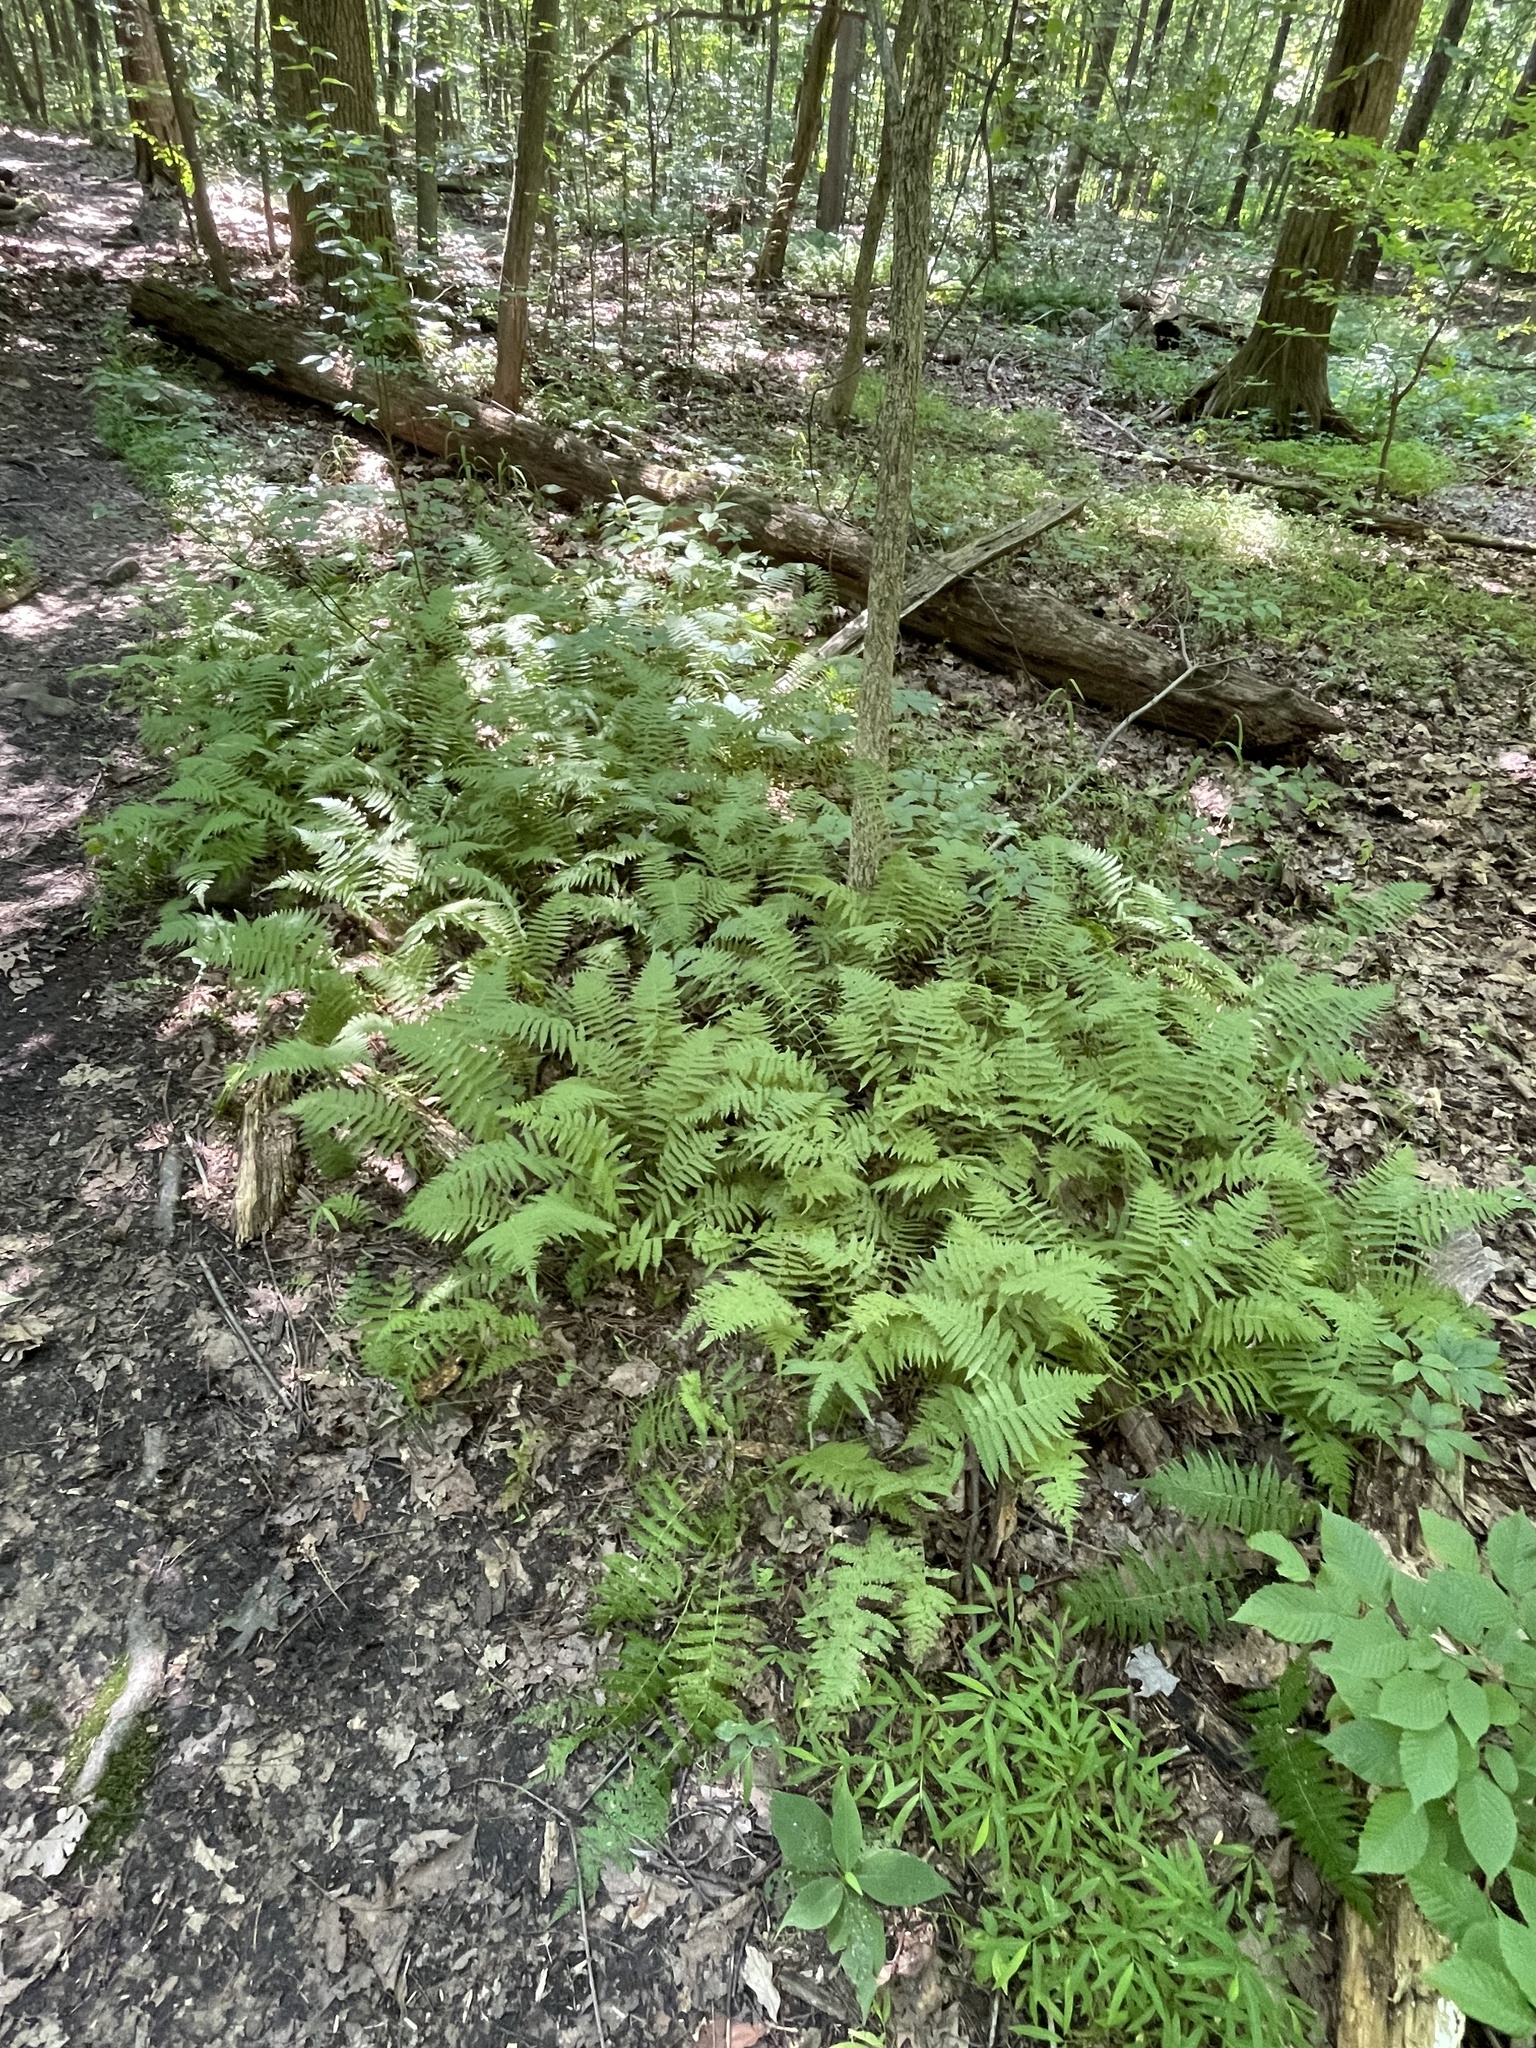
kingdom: Plantae
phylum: Tracheophyta
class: Polypodiopsida
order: Polypodiales
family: Thelypteridaceae
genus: Amauropelta
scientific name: Amauropelta noveboracensis
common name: New york fern
